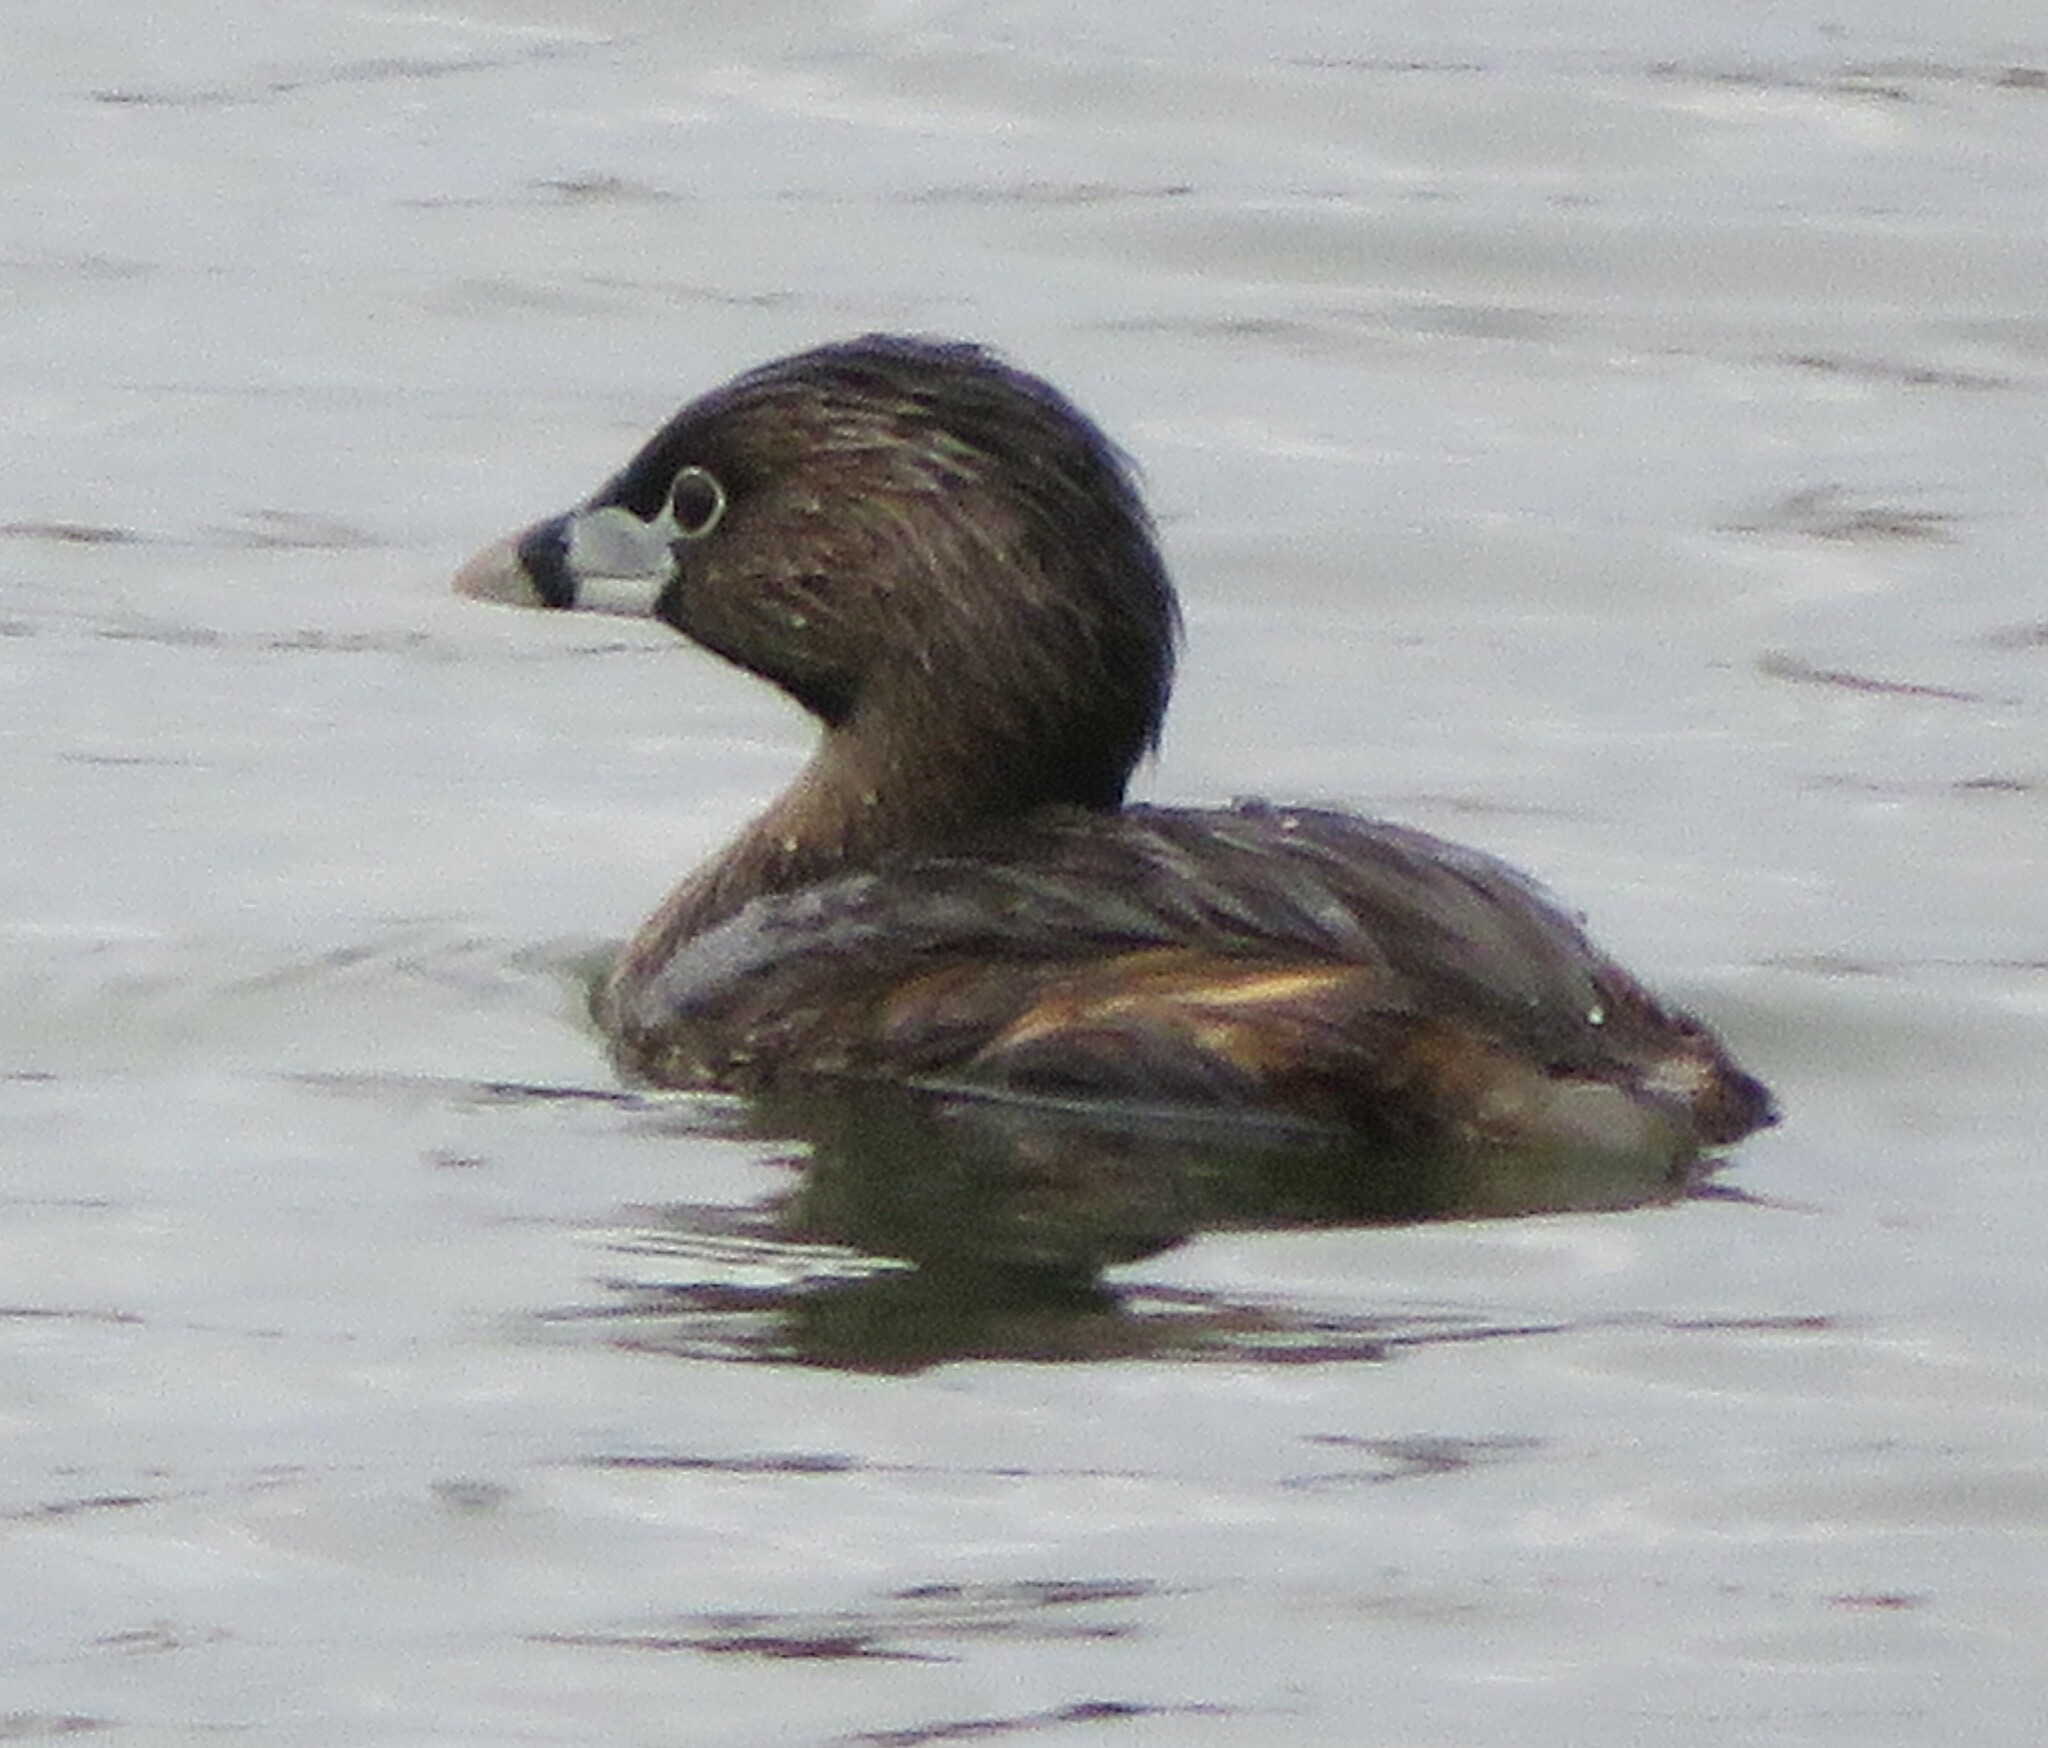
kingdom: Animalia
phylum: Chordata
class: Aves
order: Podicipediformes
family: Podicipedidae
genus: Podilymbus
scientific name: Podilymbus podiceps
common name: Pied-billed grebe
